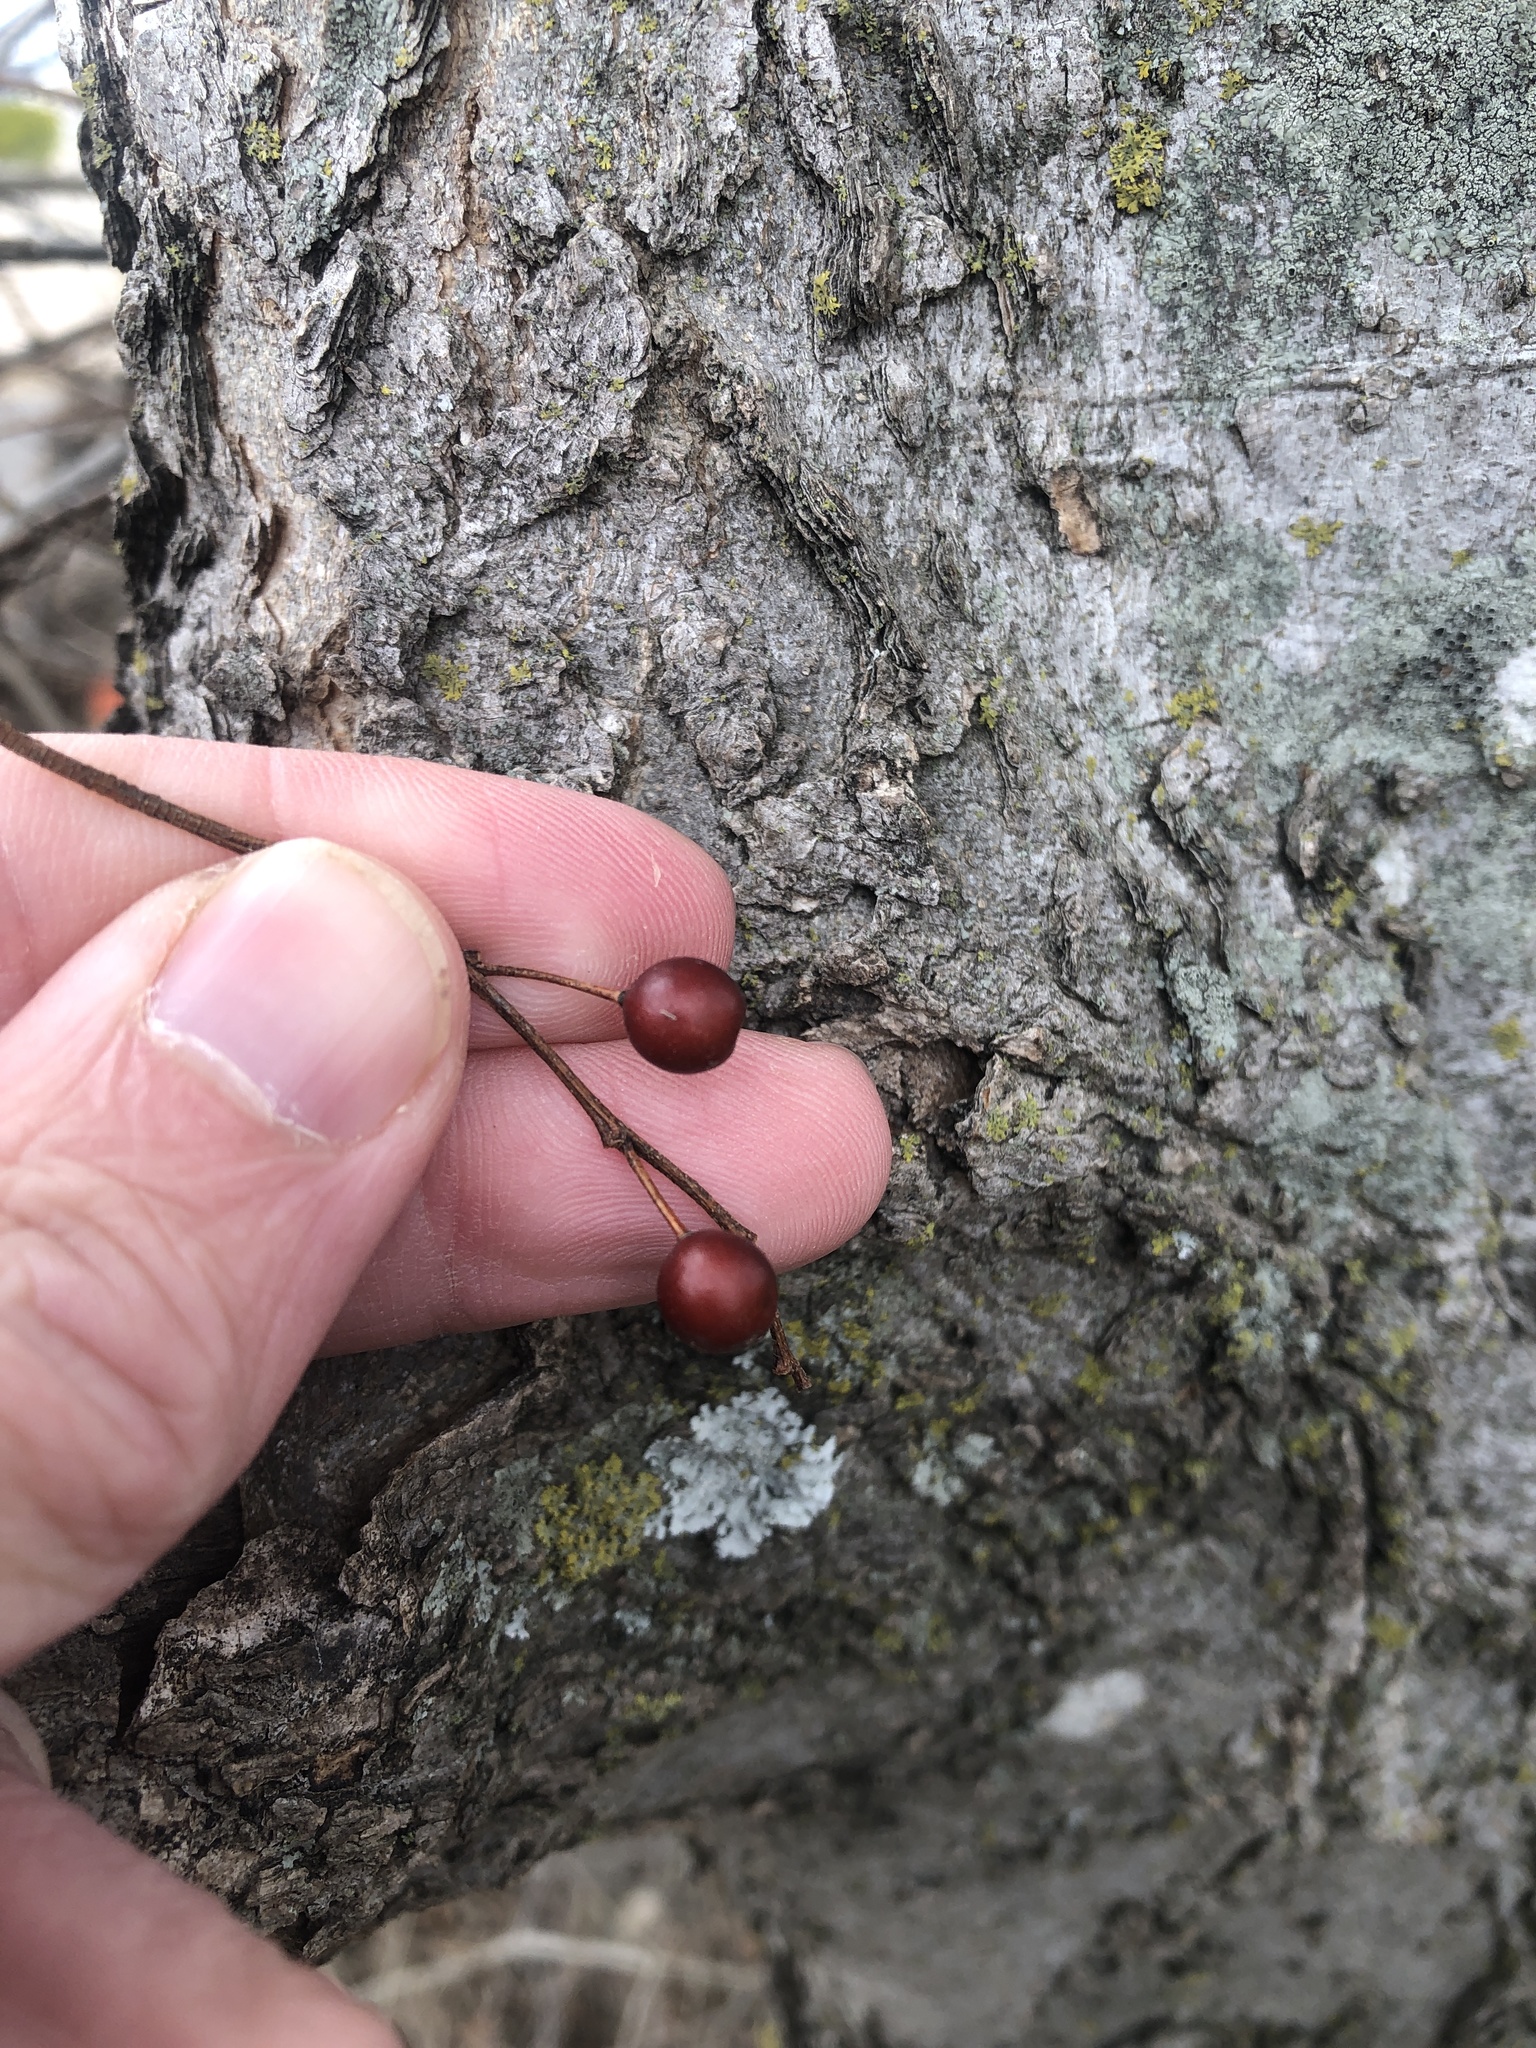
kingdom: Plantae
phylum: Tracheophyta
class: Magnoliopsida
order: Rosales
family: Cannabaceae
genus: Celtis
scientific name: Celtis laevigata
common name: Sugarberry
